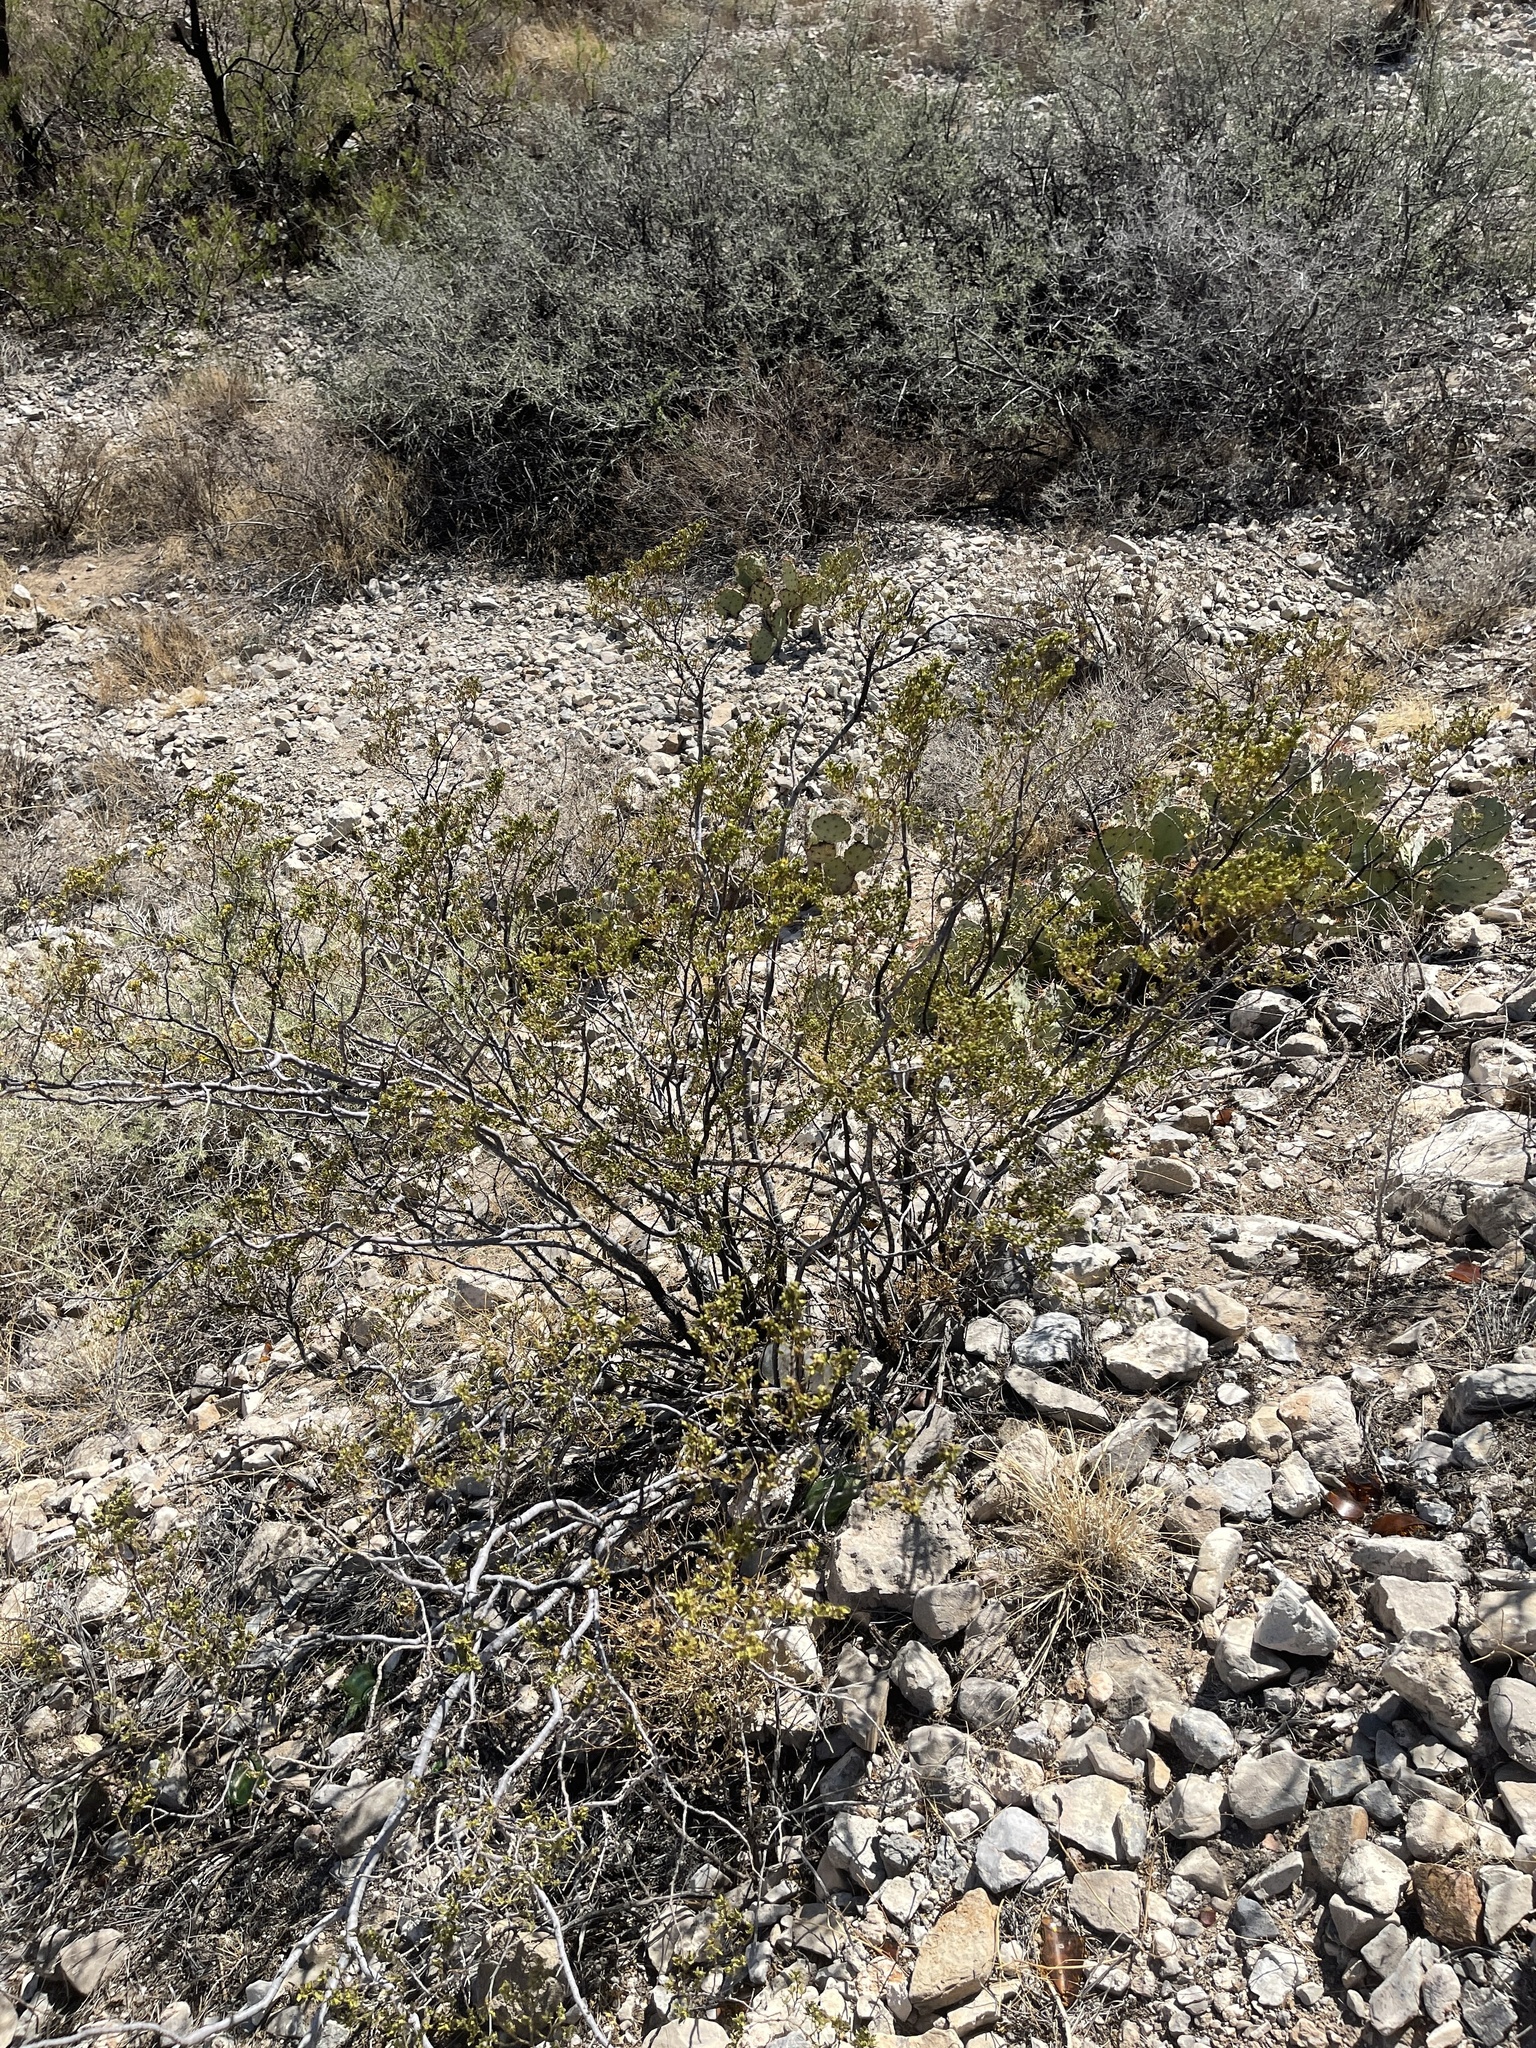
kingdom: Plantae
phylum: Tracheophyta
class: Magnoliopsida
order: Zygophyllales
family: Zygophyllaceae
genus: Larrea
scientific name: Larrea tridentata
